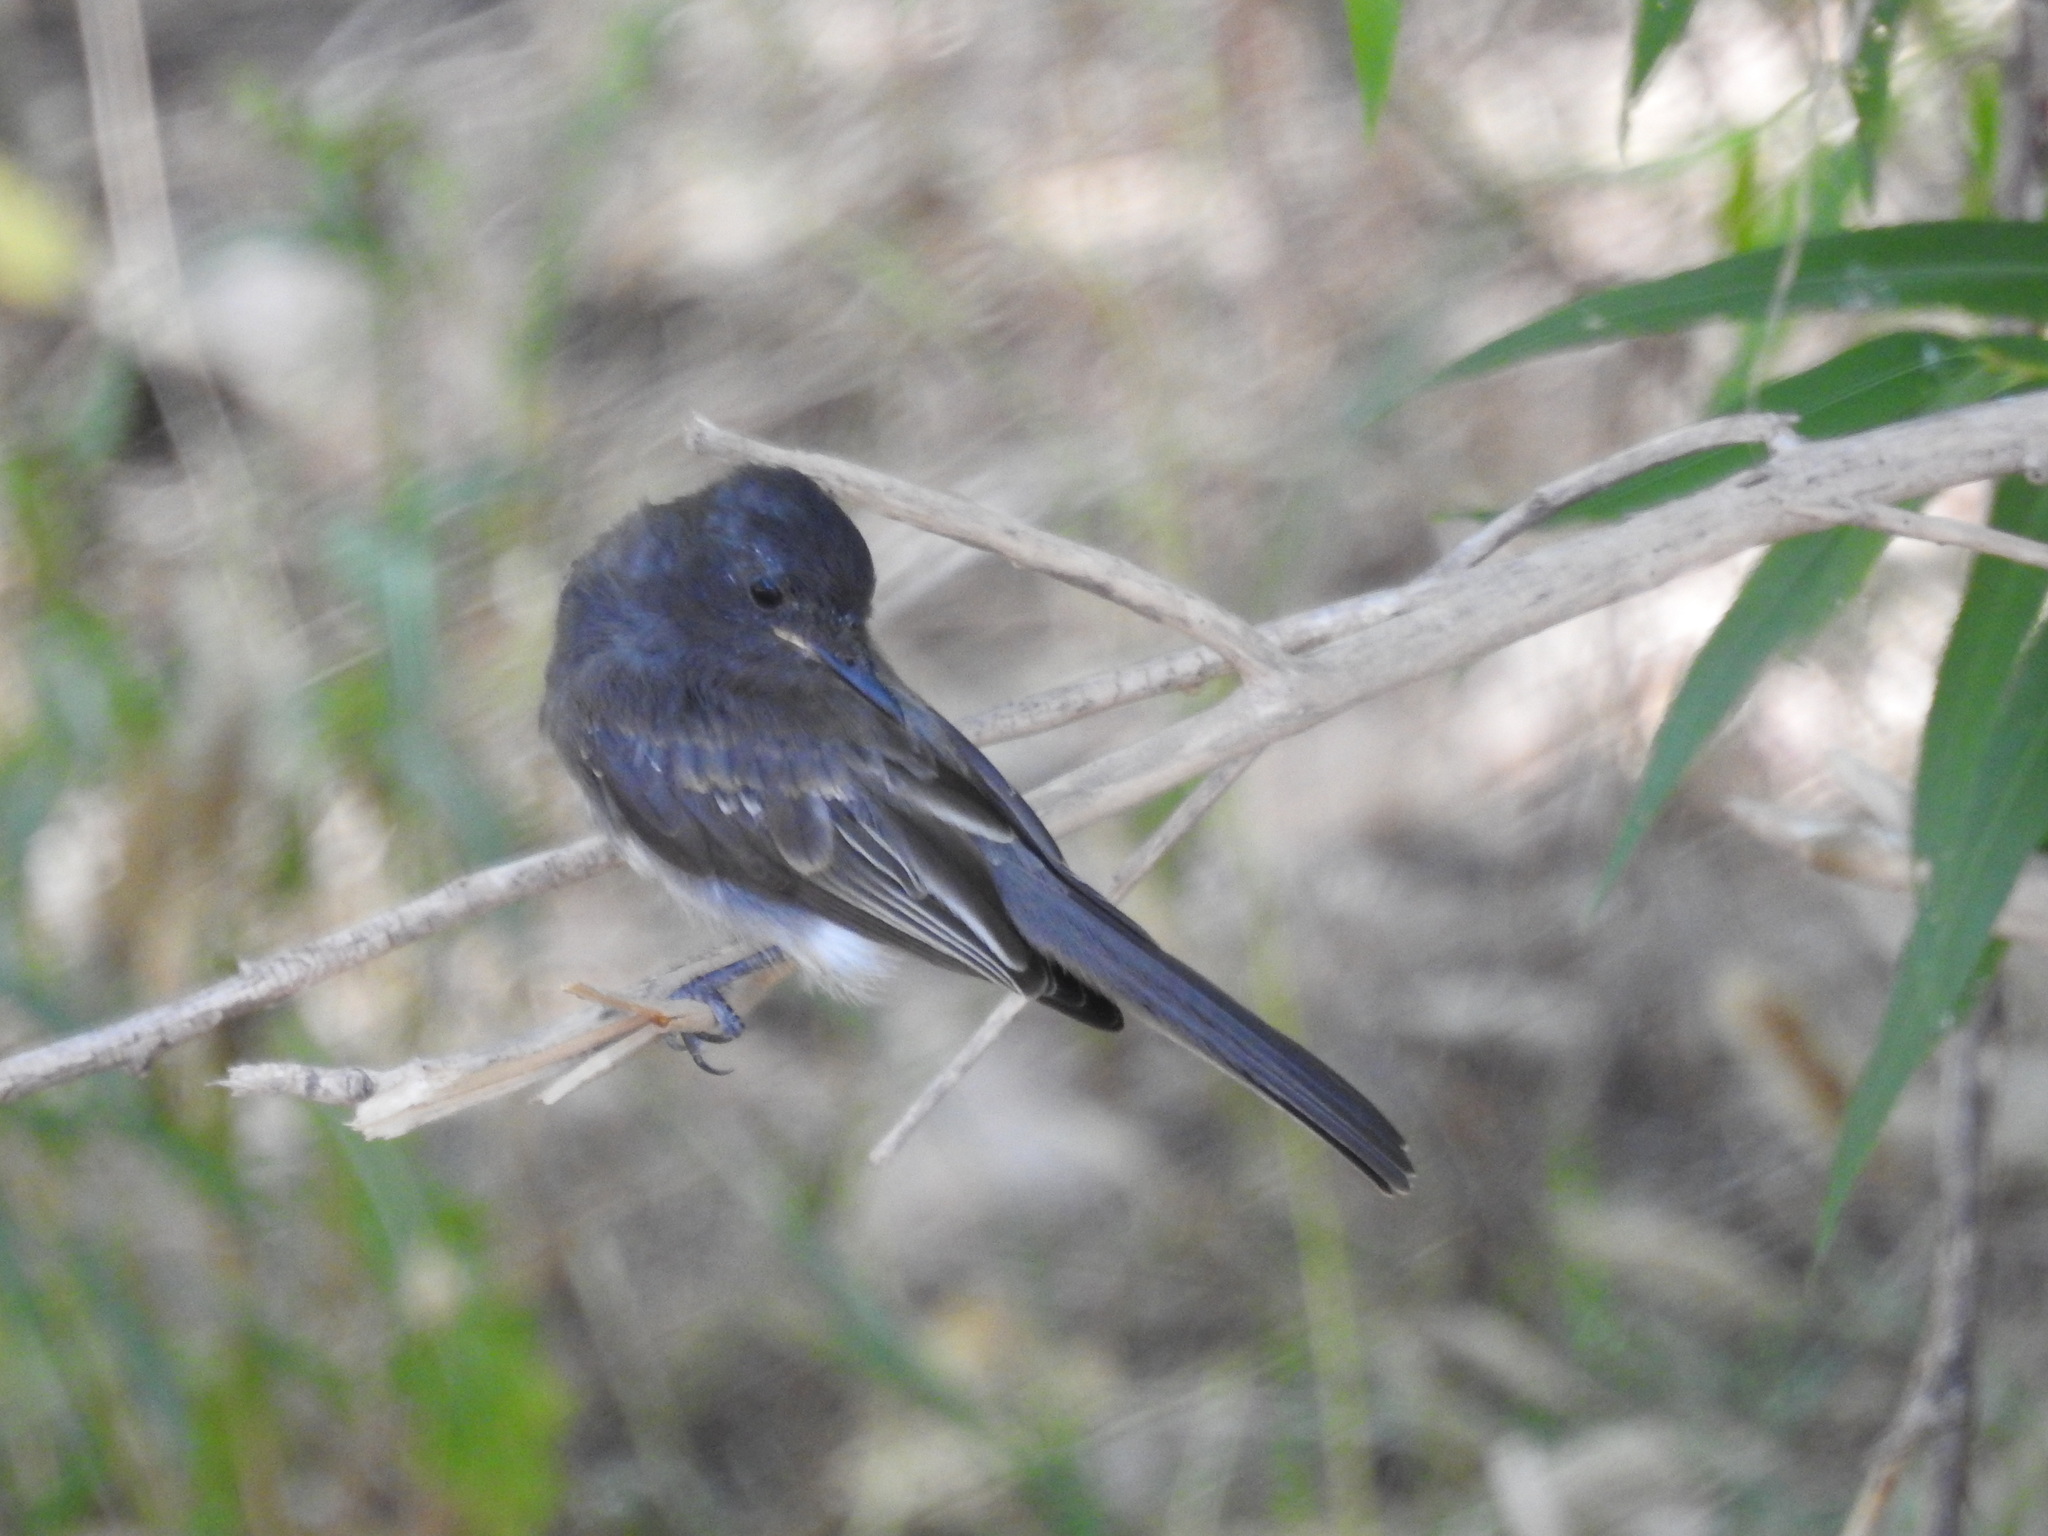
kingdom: Animalia
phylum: Chordata
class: Aves
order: Passeriformes
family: Tyrannidae
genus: Sayornis
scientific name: Sayornis nigricans
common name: Black phoebe
